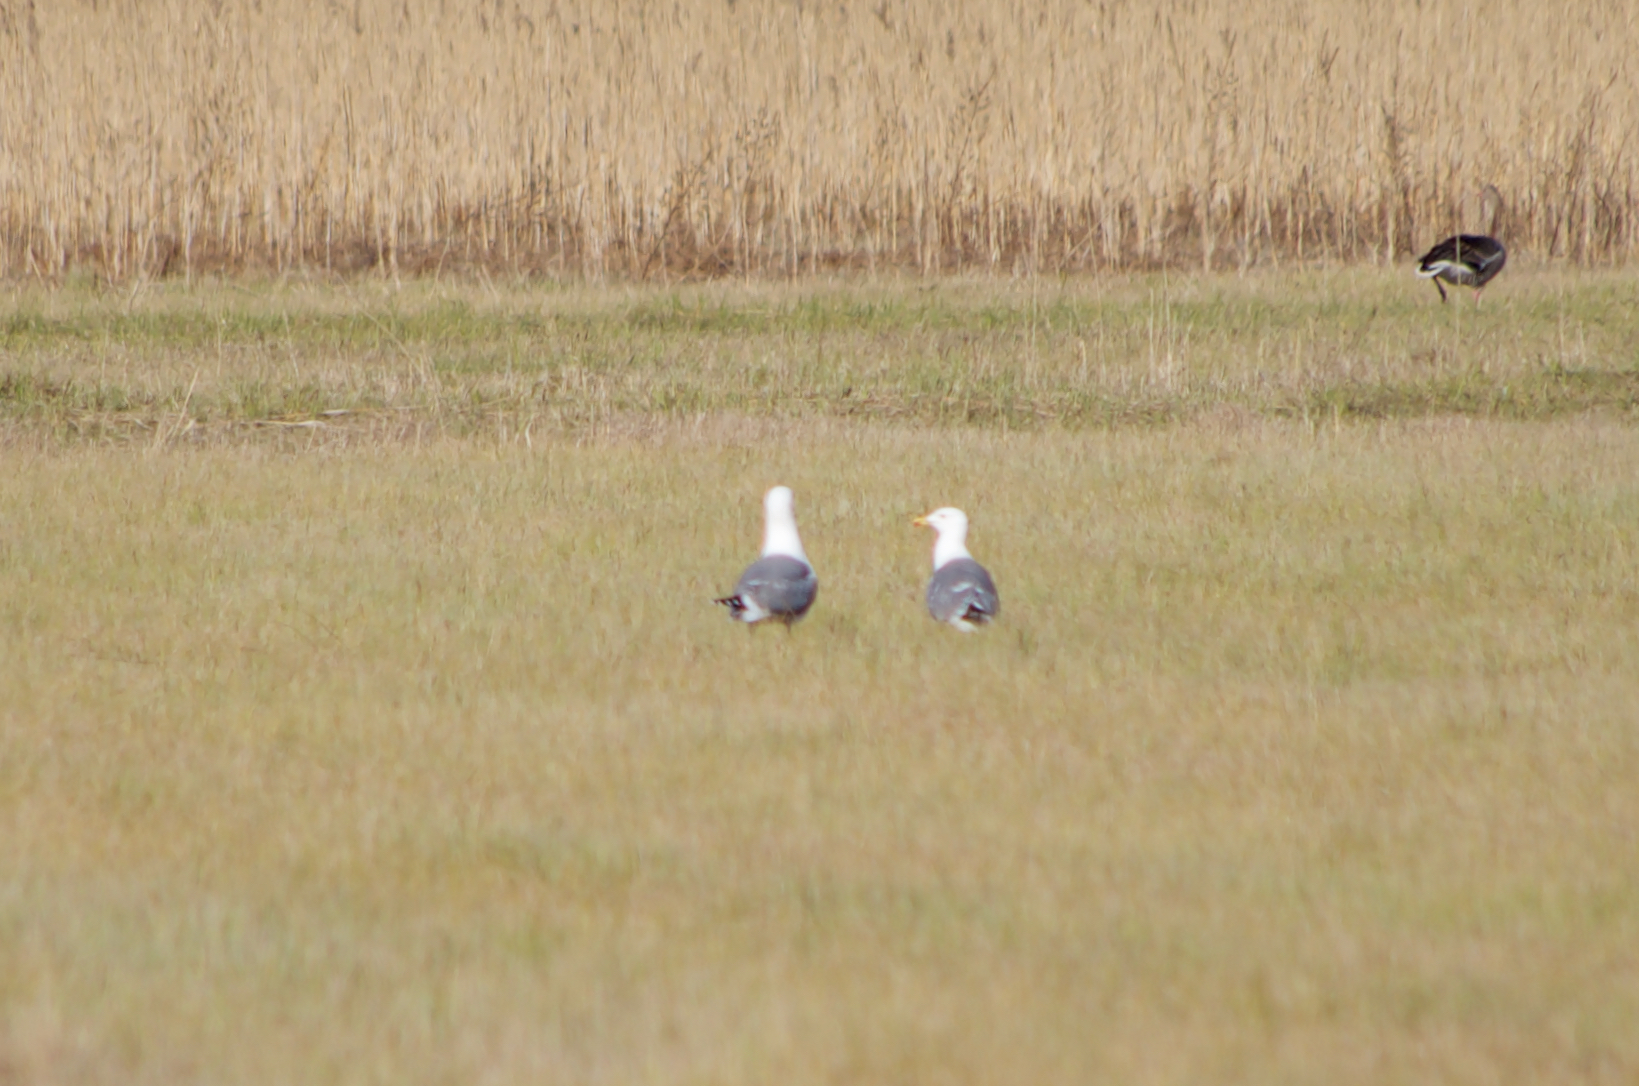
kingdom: Animalia
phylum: Chordata
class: Aves
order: Charadriiformes
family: Laridae
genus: Larus
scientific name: Larus michahellis
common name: Yellow-legged gull
